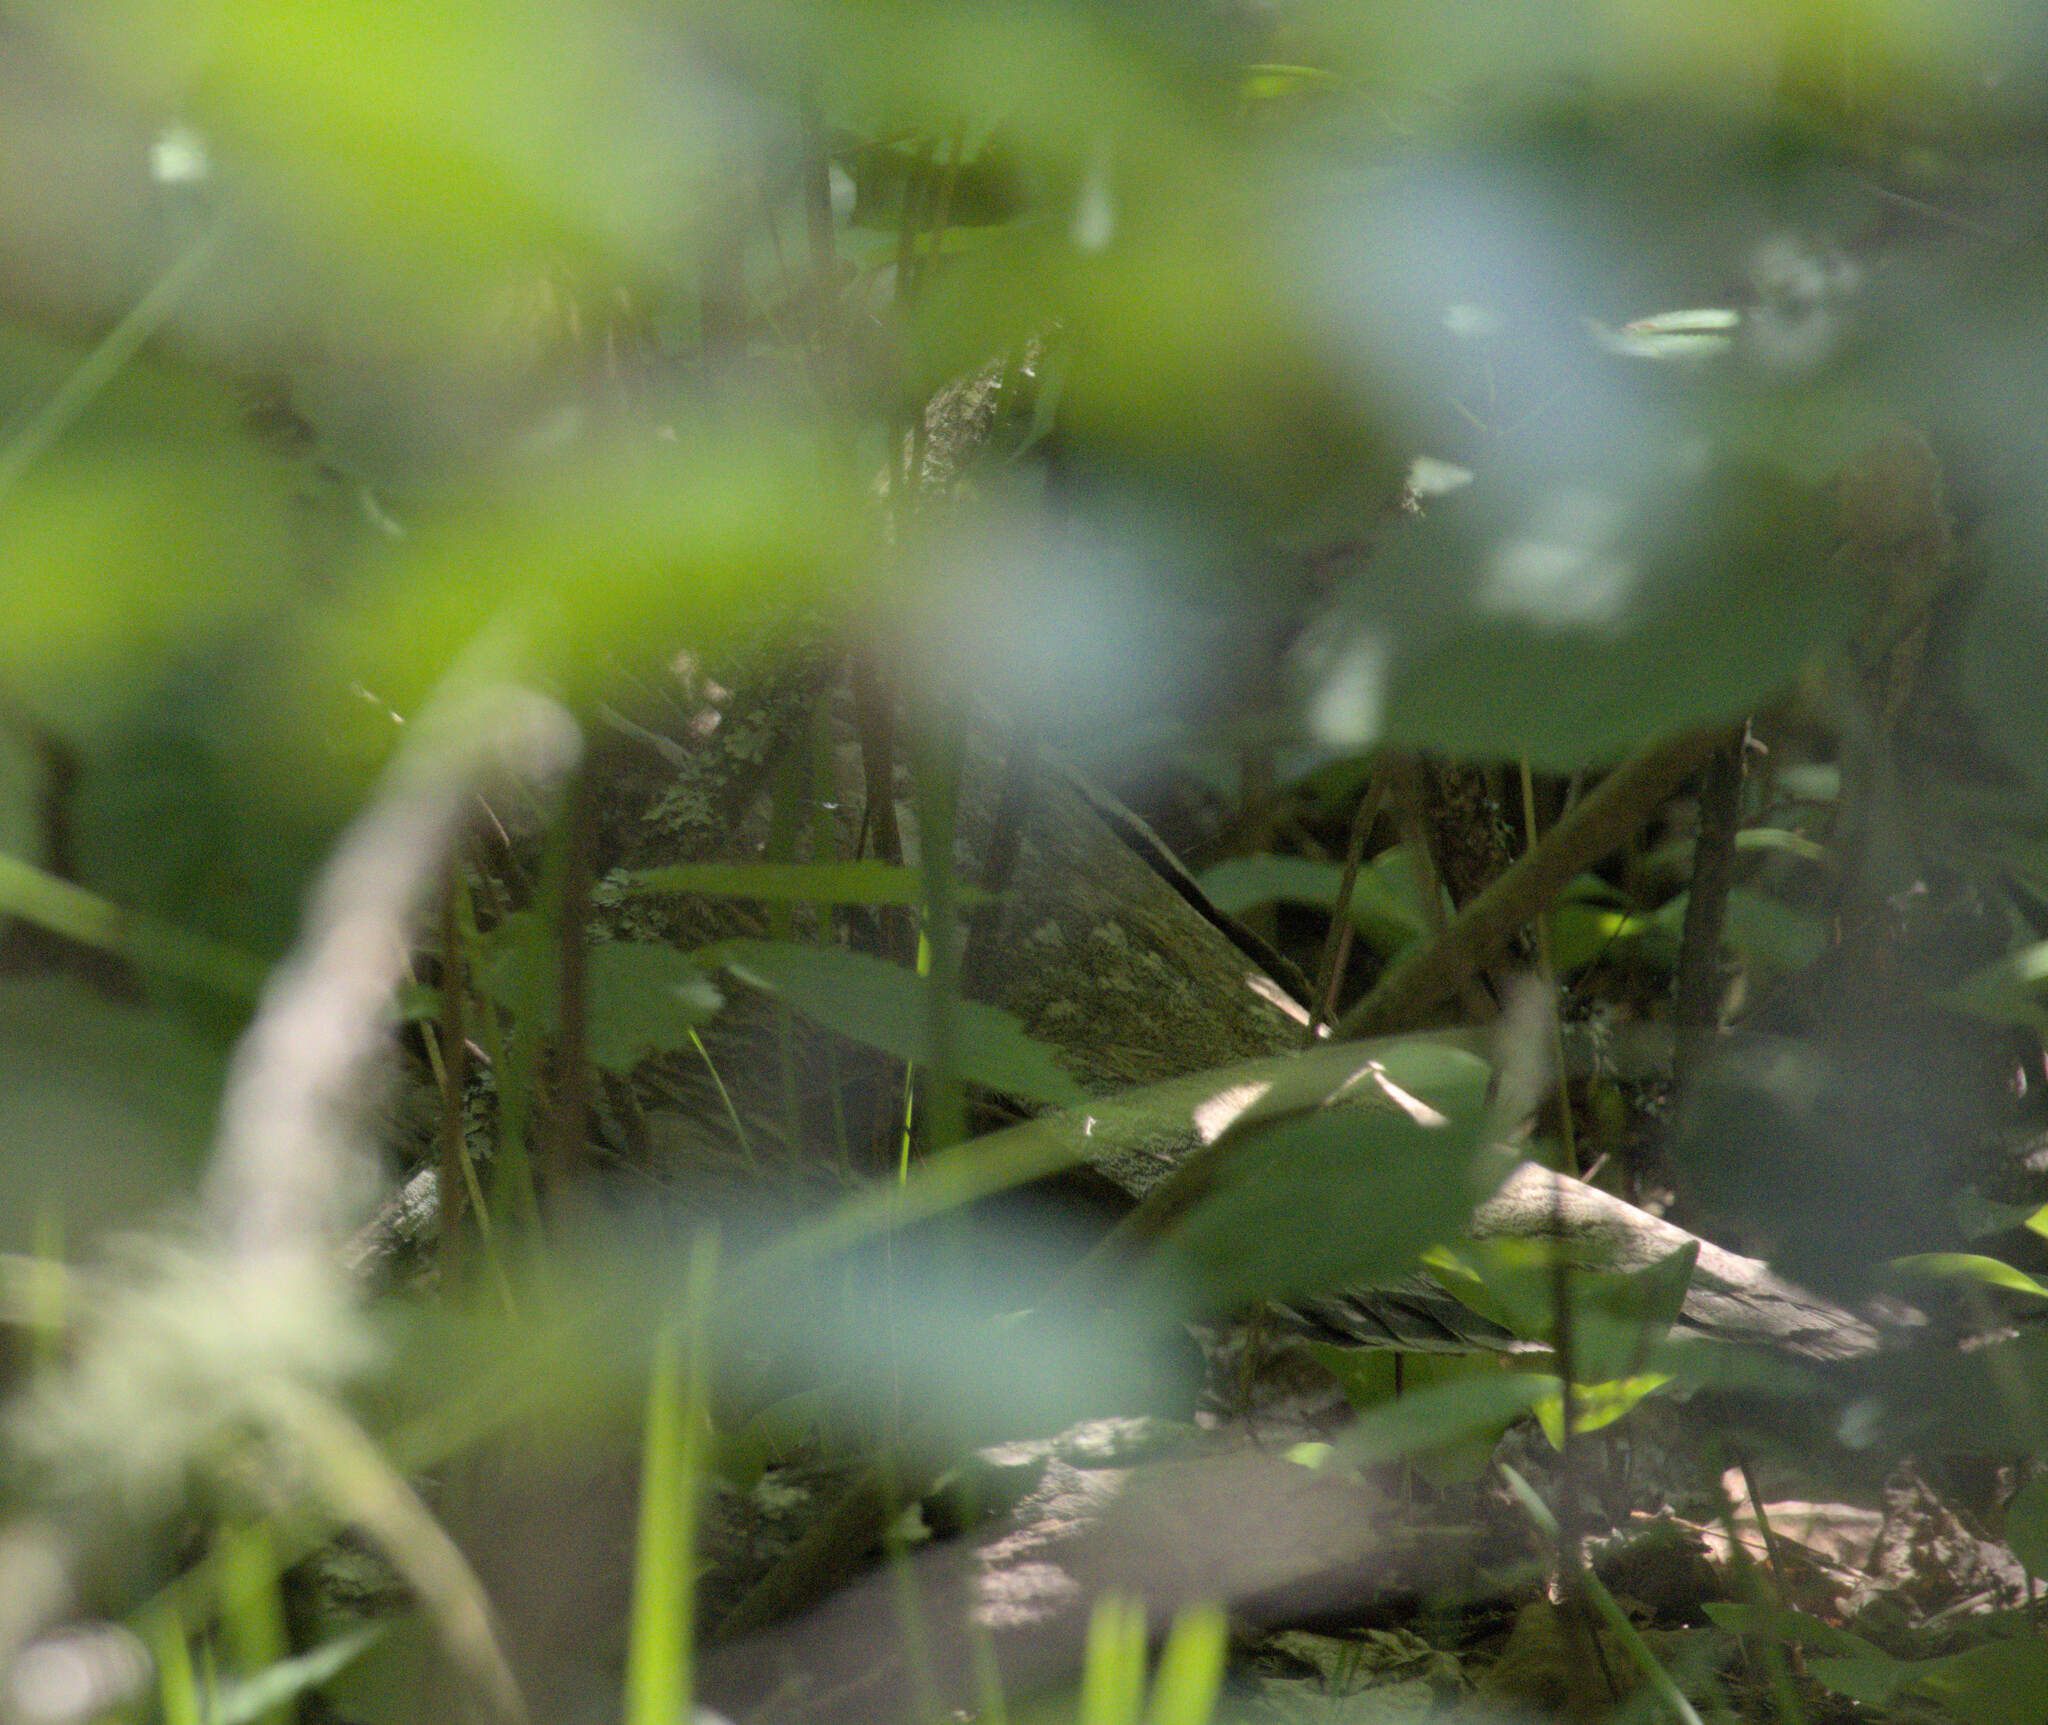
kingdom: Animalia
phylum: Chordata
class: Aves
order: Galliformes
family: Phasianidae
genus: Bonasa
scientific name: Bonasa umbellus
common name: Ruffed grouse
